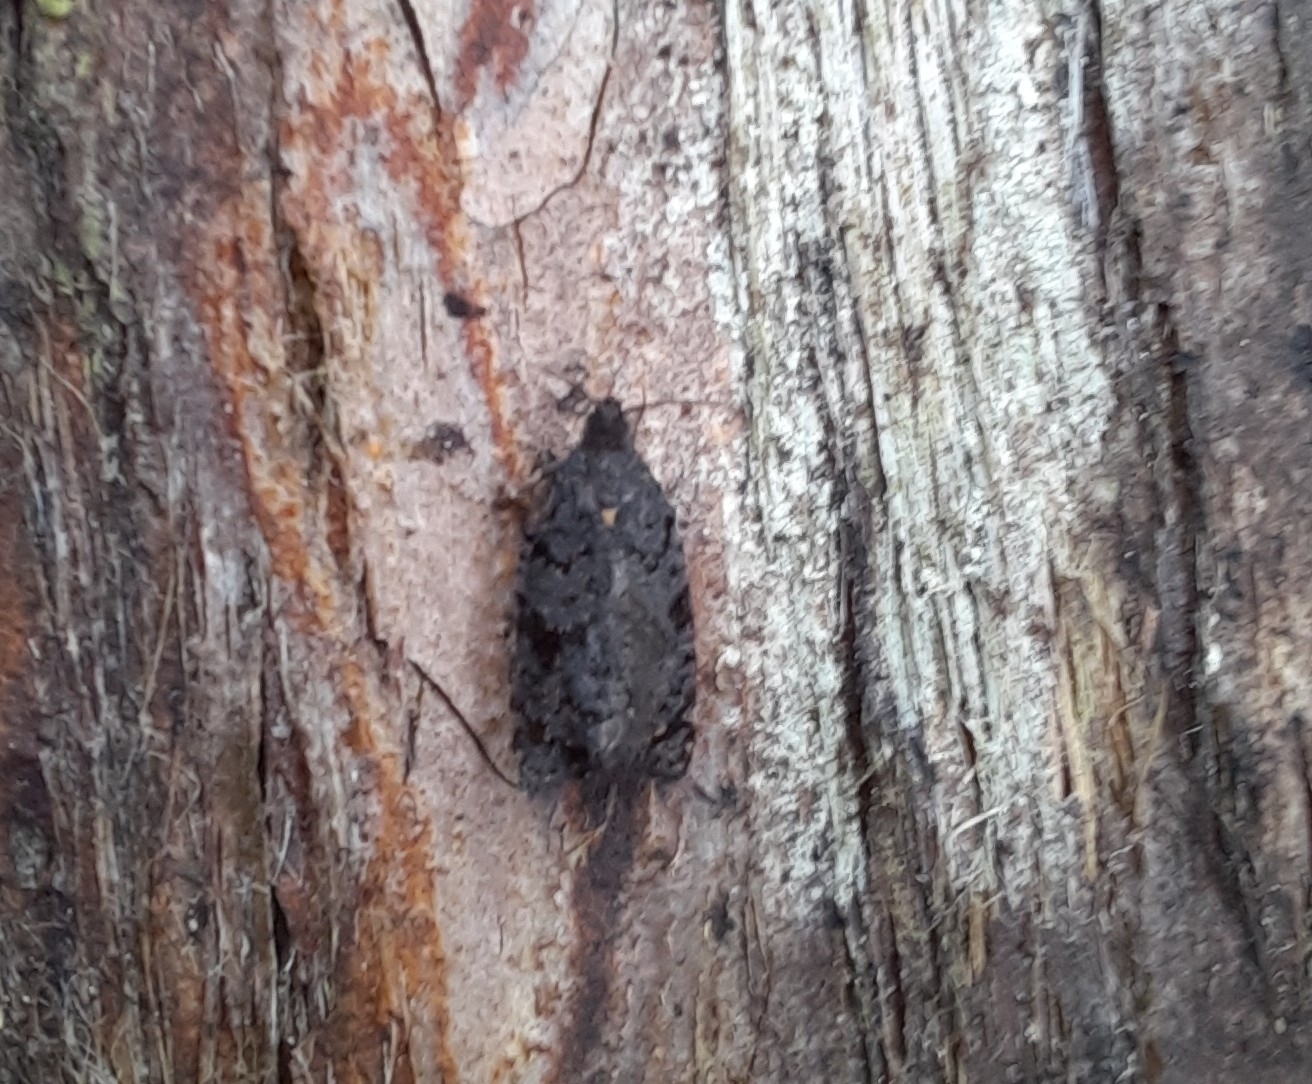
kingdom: Animalia
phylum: Arthropoda
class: Insecta
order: Lepidoptera
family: Tortricidae
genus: Tortrix
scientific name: Tortrix molybditis
